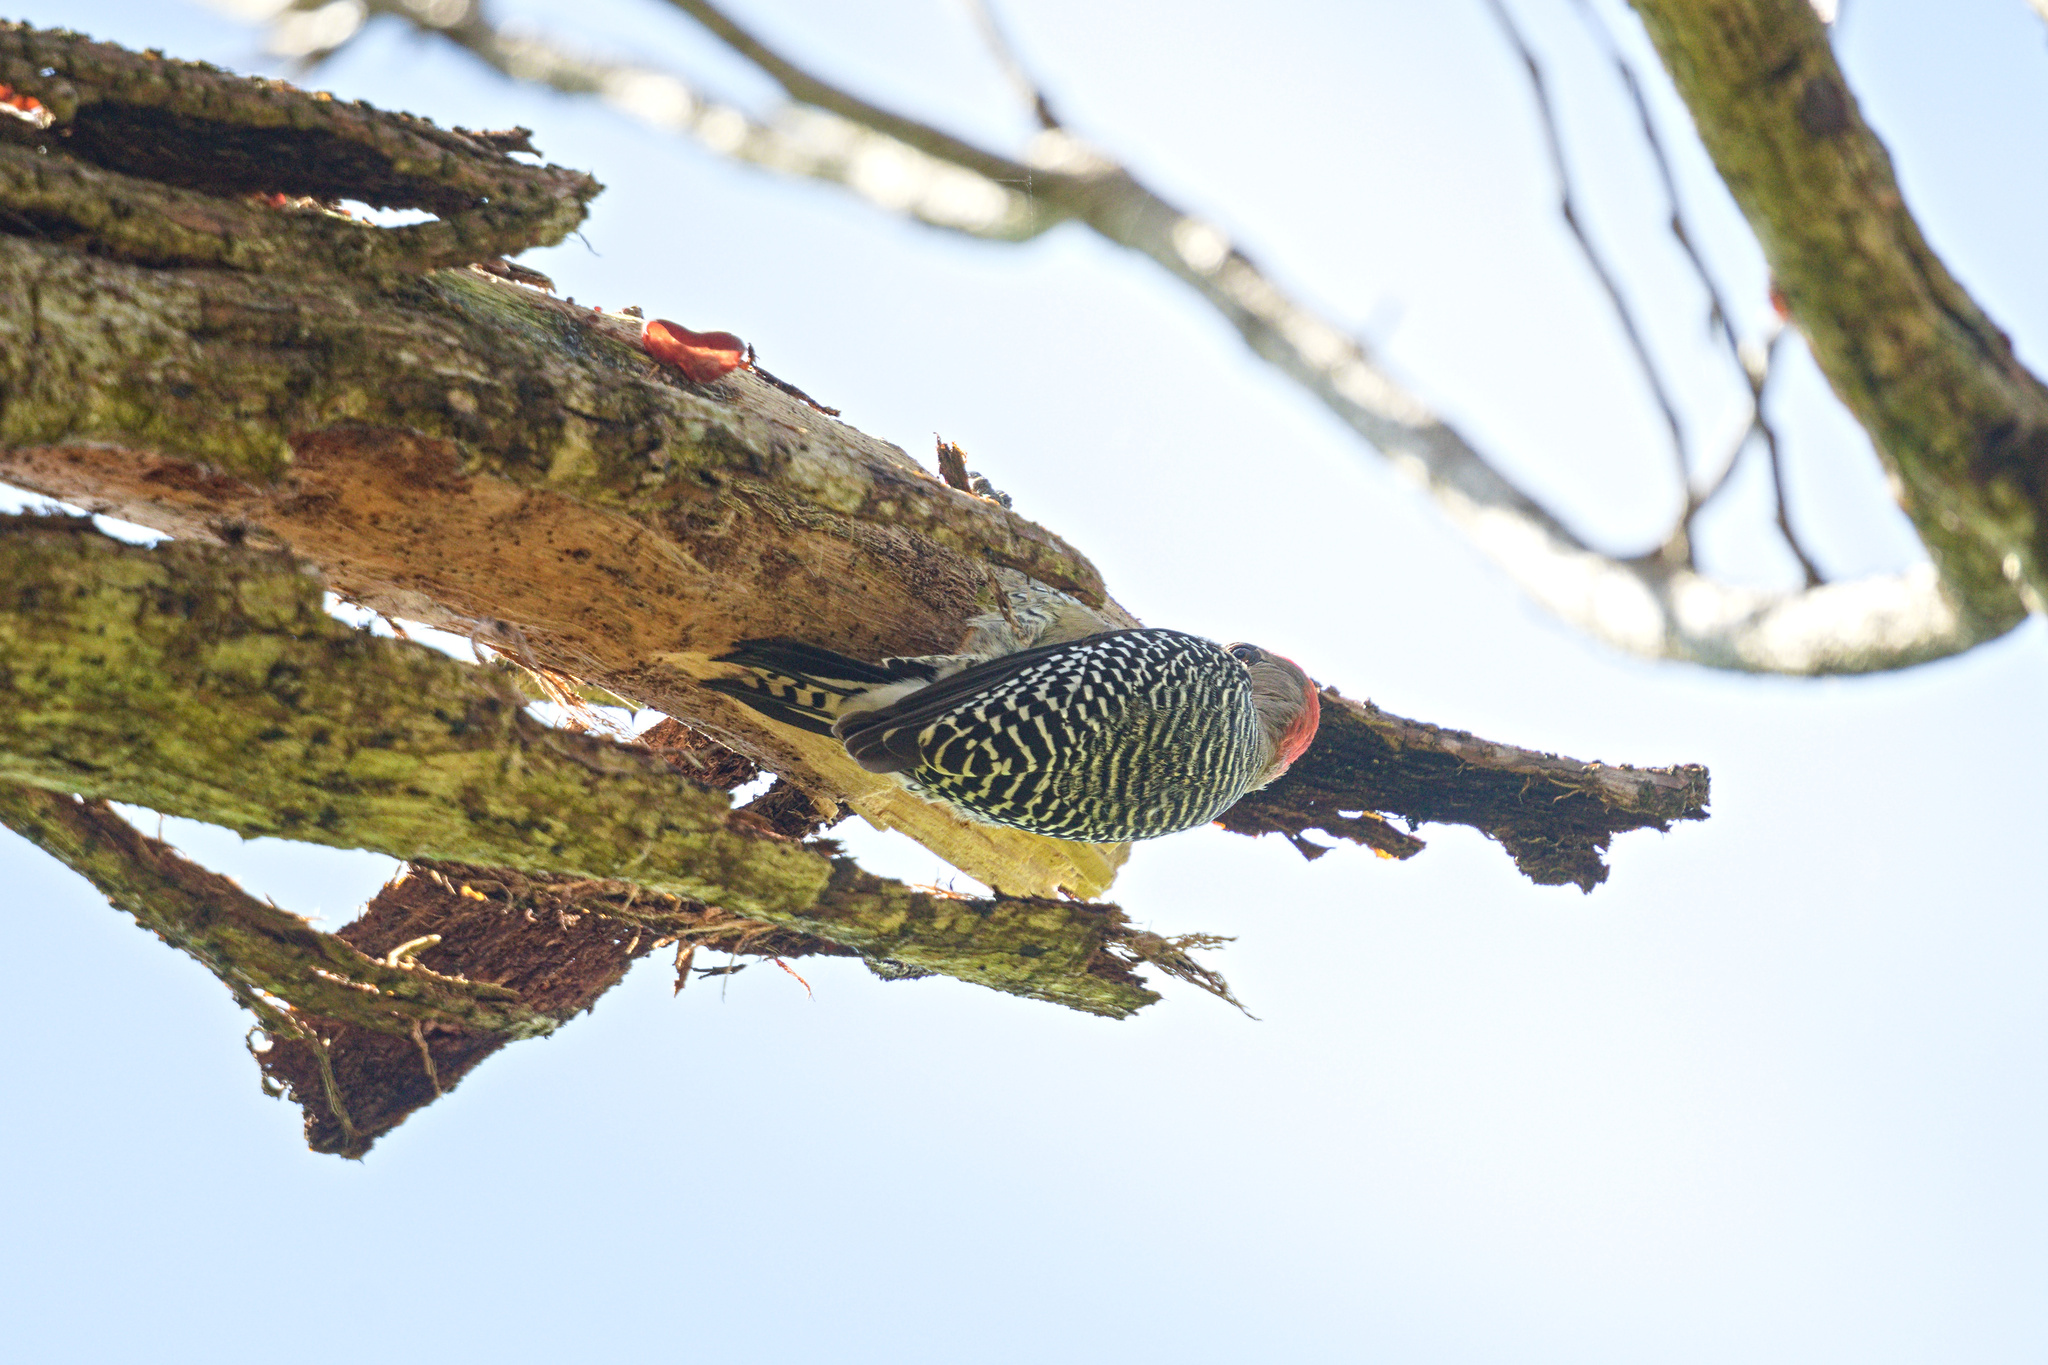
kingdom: Animalia
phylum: Chordata
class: Aves
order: Piciformes
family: Picidae
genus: Melanerpes
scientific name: Melanerpes rubricapillus
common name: Red-crowned woodpecker
